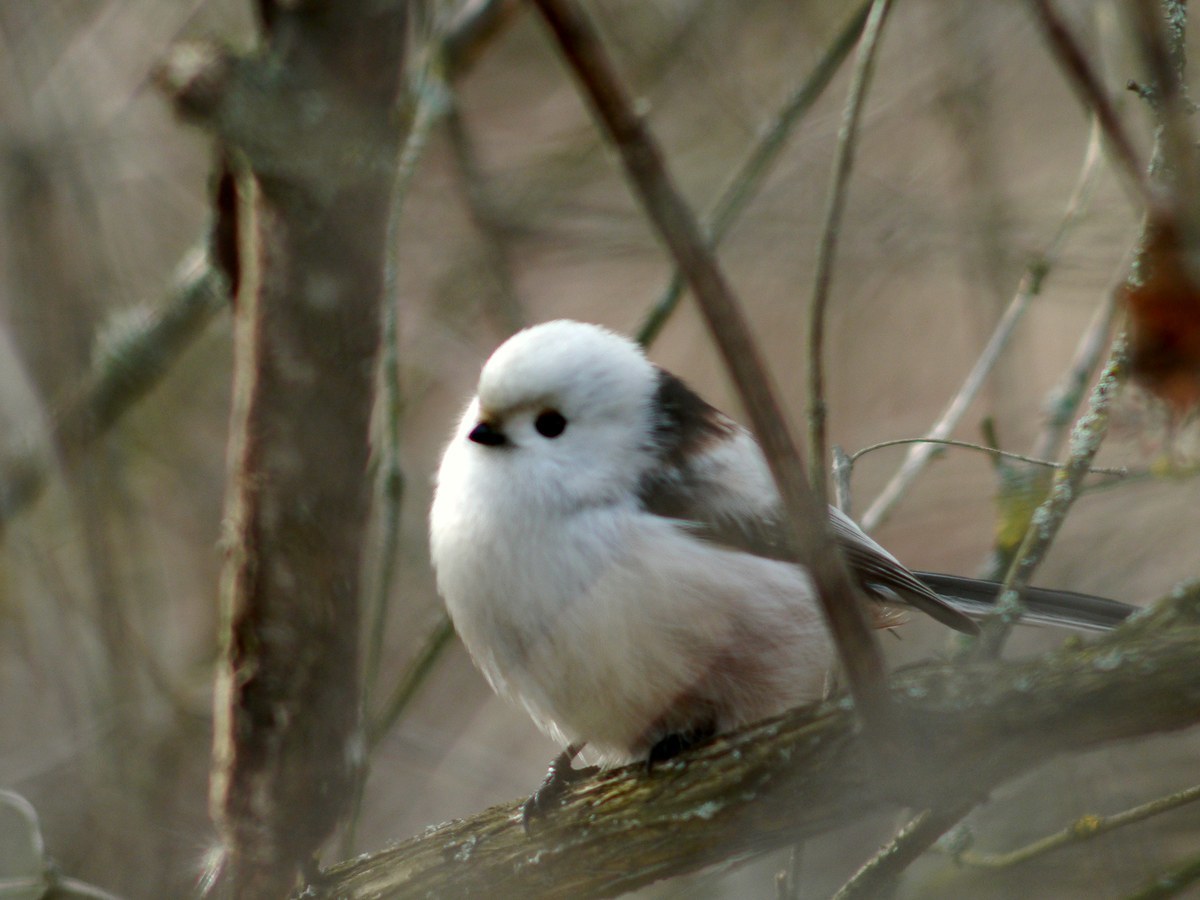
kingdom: Animalia
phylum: Chordata
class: Aves
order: Passeriformes
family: Aegithalidae
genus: Aegithalos
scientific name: Aegithalos caudatus
